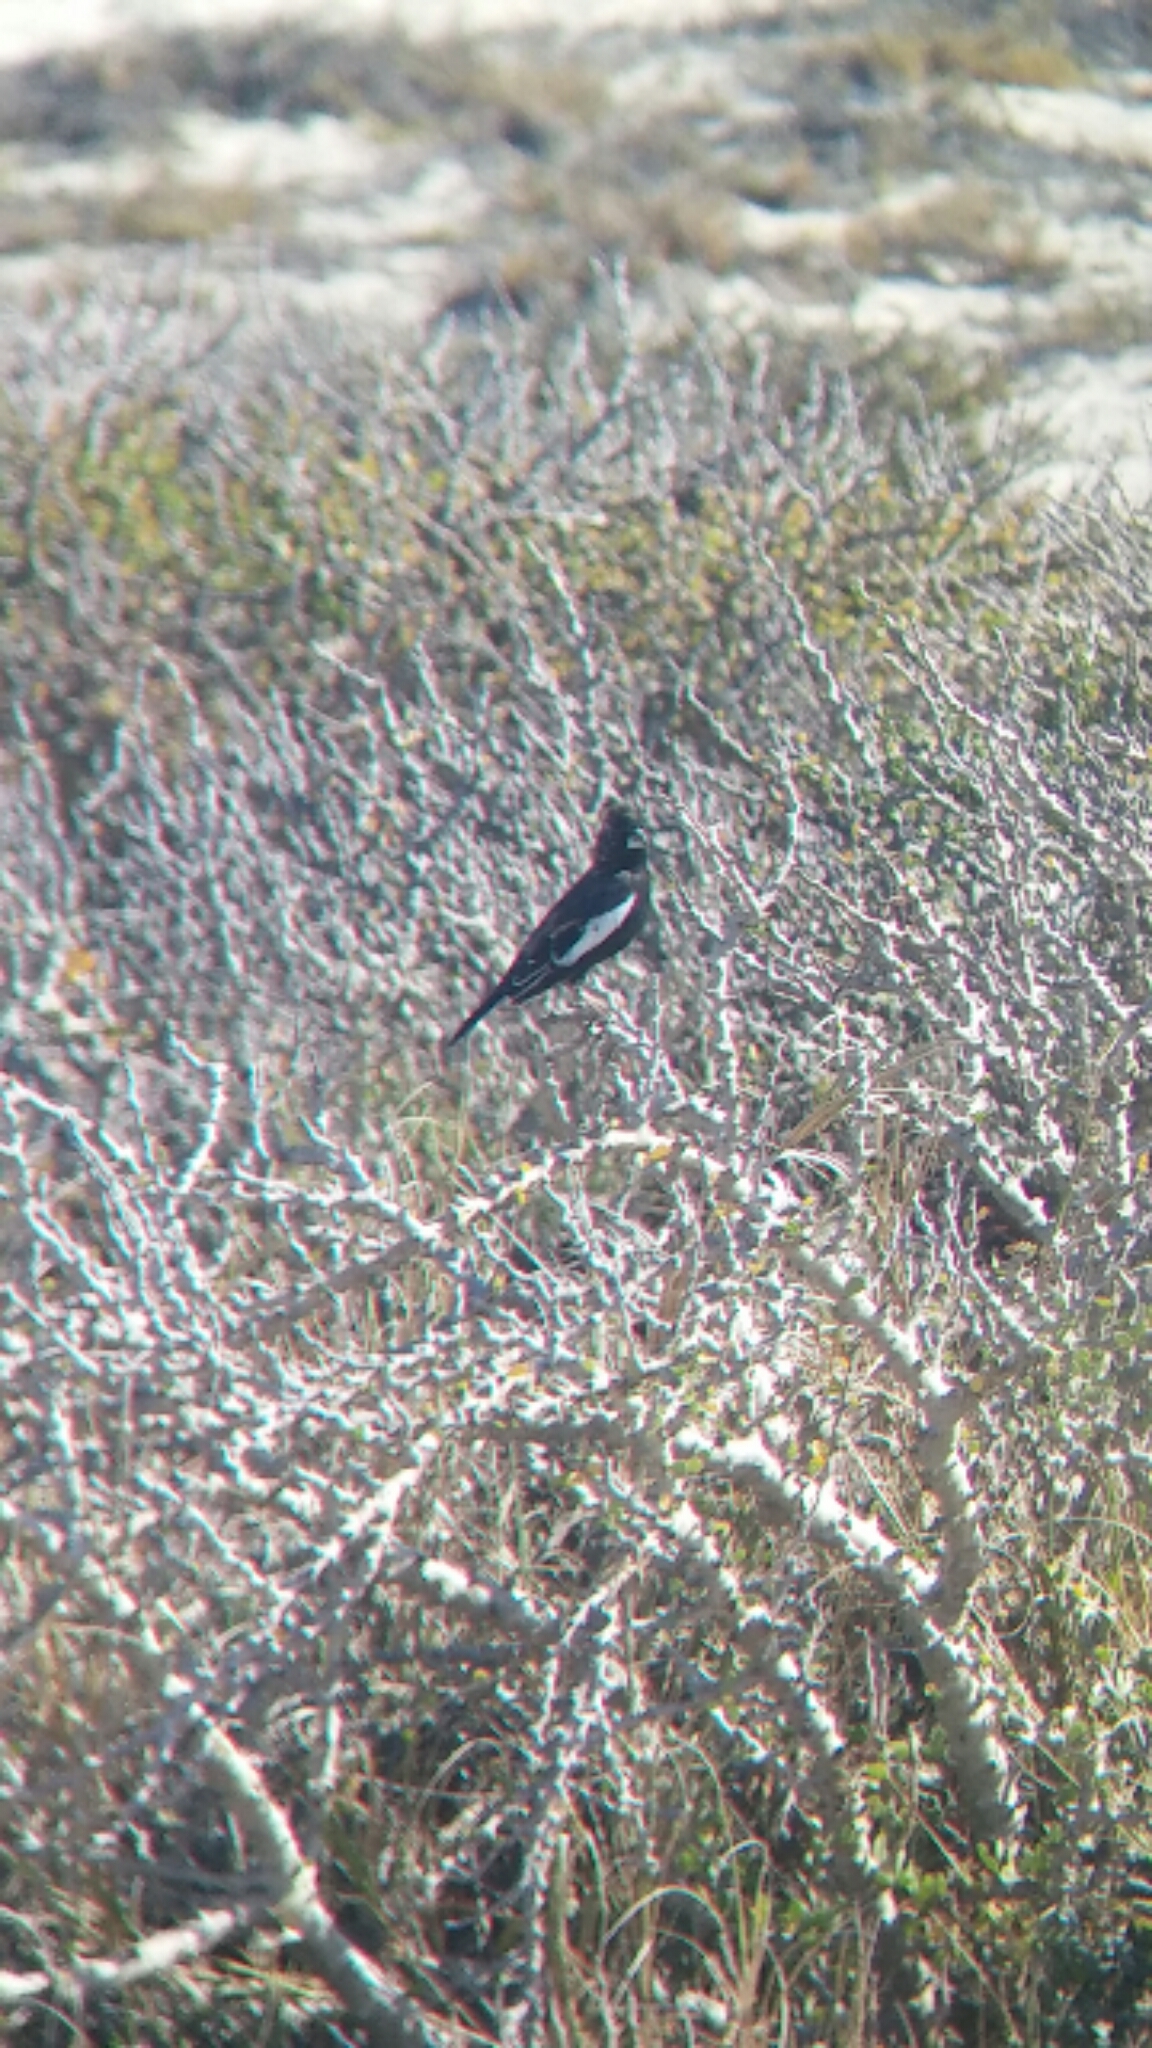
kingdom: Animalia
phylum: Chordata
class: Aves
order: Passeriformes
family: Passerellidae
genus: Calamospiza
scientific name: Calamospiza melanocorys
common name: Lark bunting
